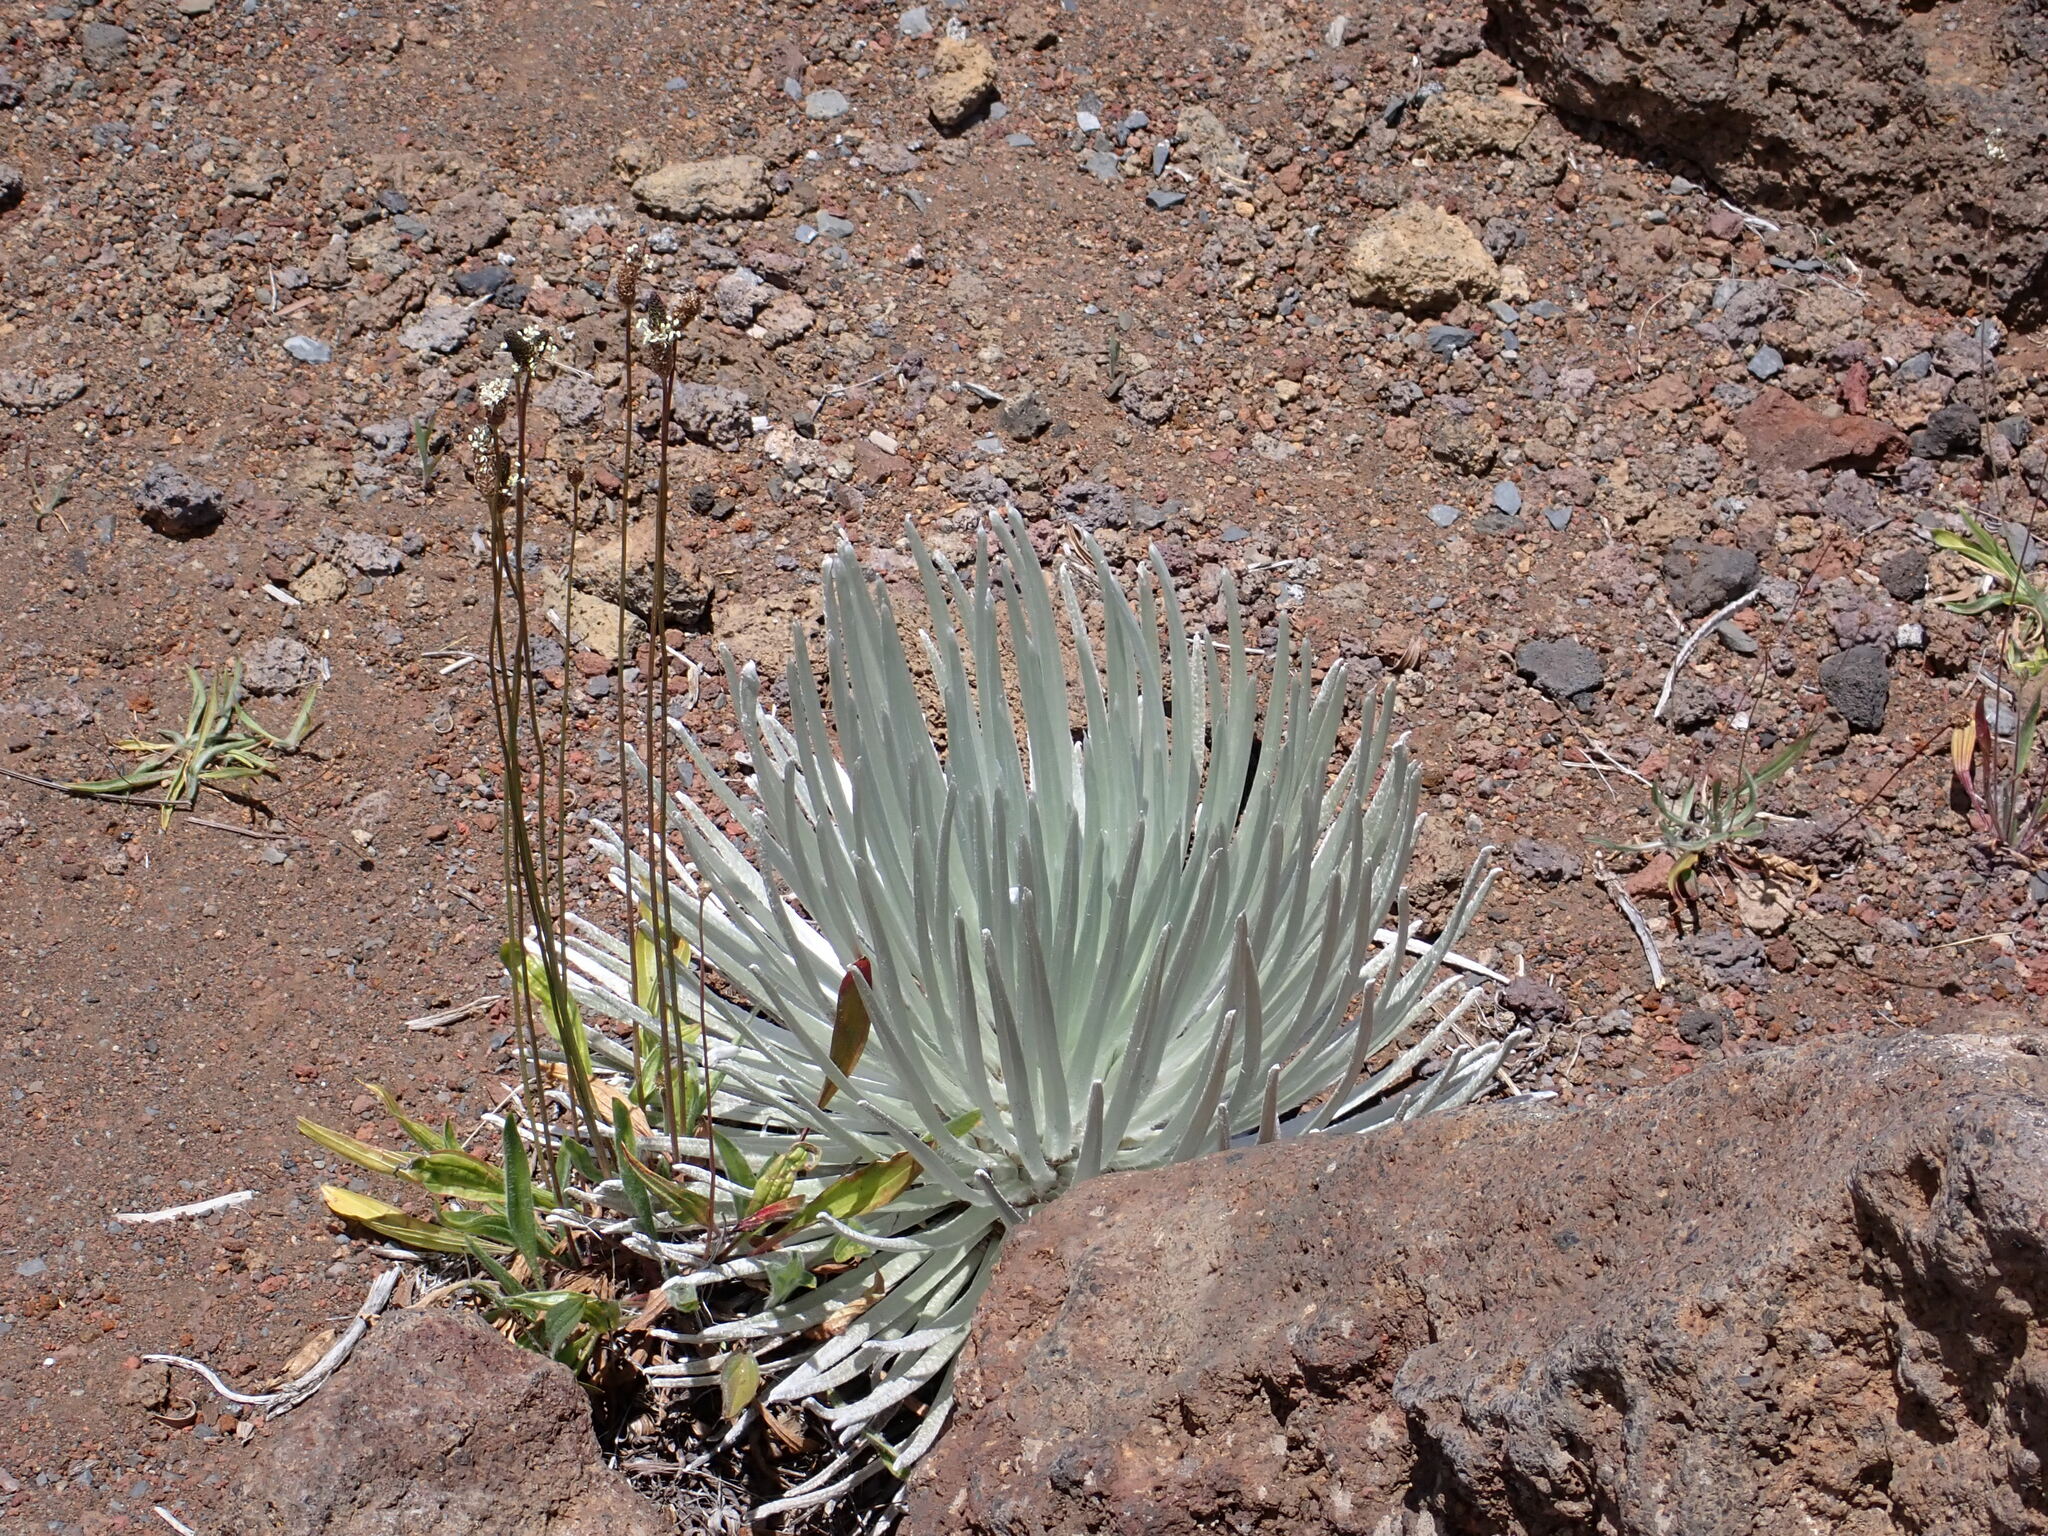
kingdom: Plantae
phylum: Tracheophyta
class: Magnoliopsida
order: Asterales
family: Asteraceae
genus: Argyroxiphium
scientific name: Argyroxiphium sandwicense
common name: Silversword
